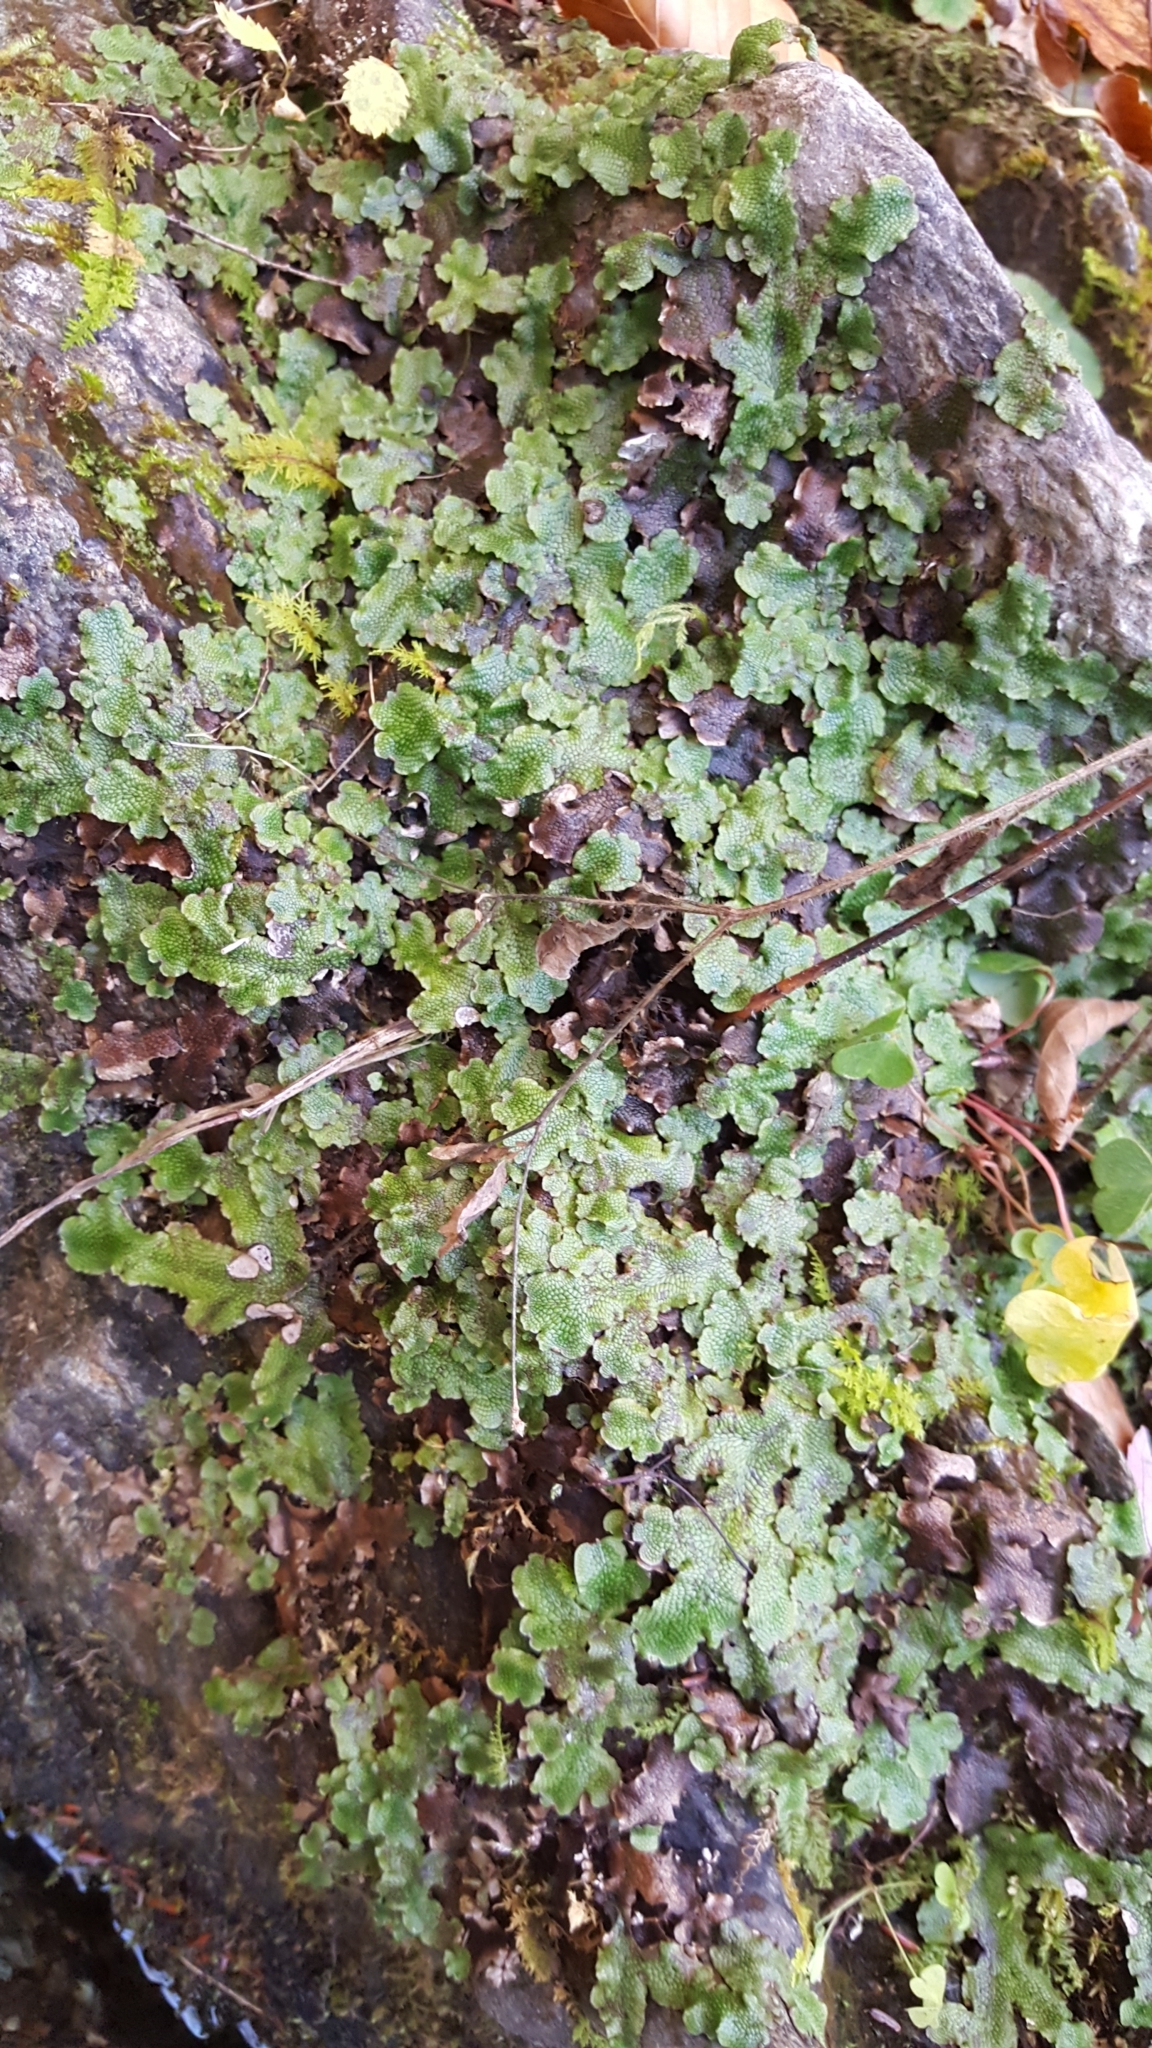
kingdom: Plantae
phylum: Marchantiophyta
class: Marchantiopsida
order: Marchantiales
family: Conocephalaceae
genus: Conocephalum
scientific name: Conocephalum salebrosum
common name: Cat-tongue liverwort
